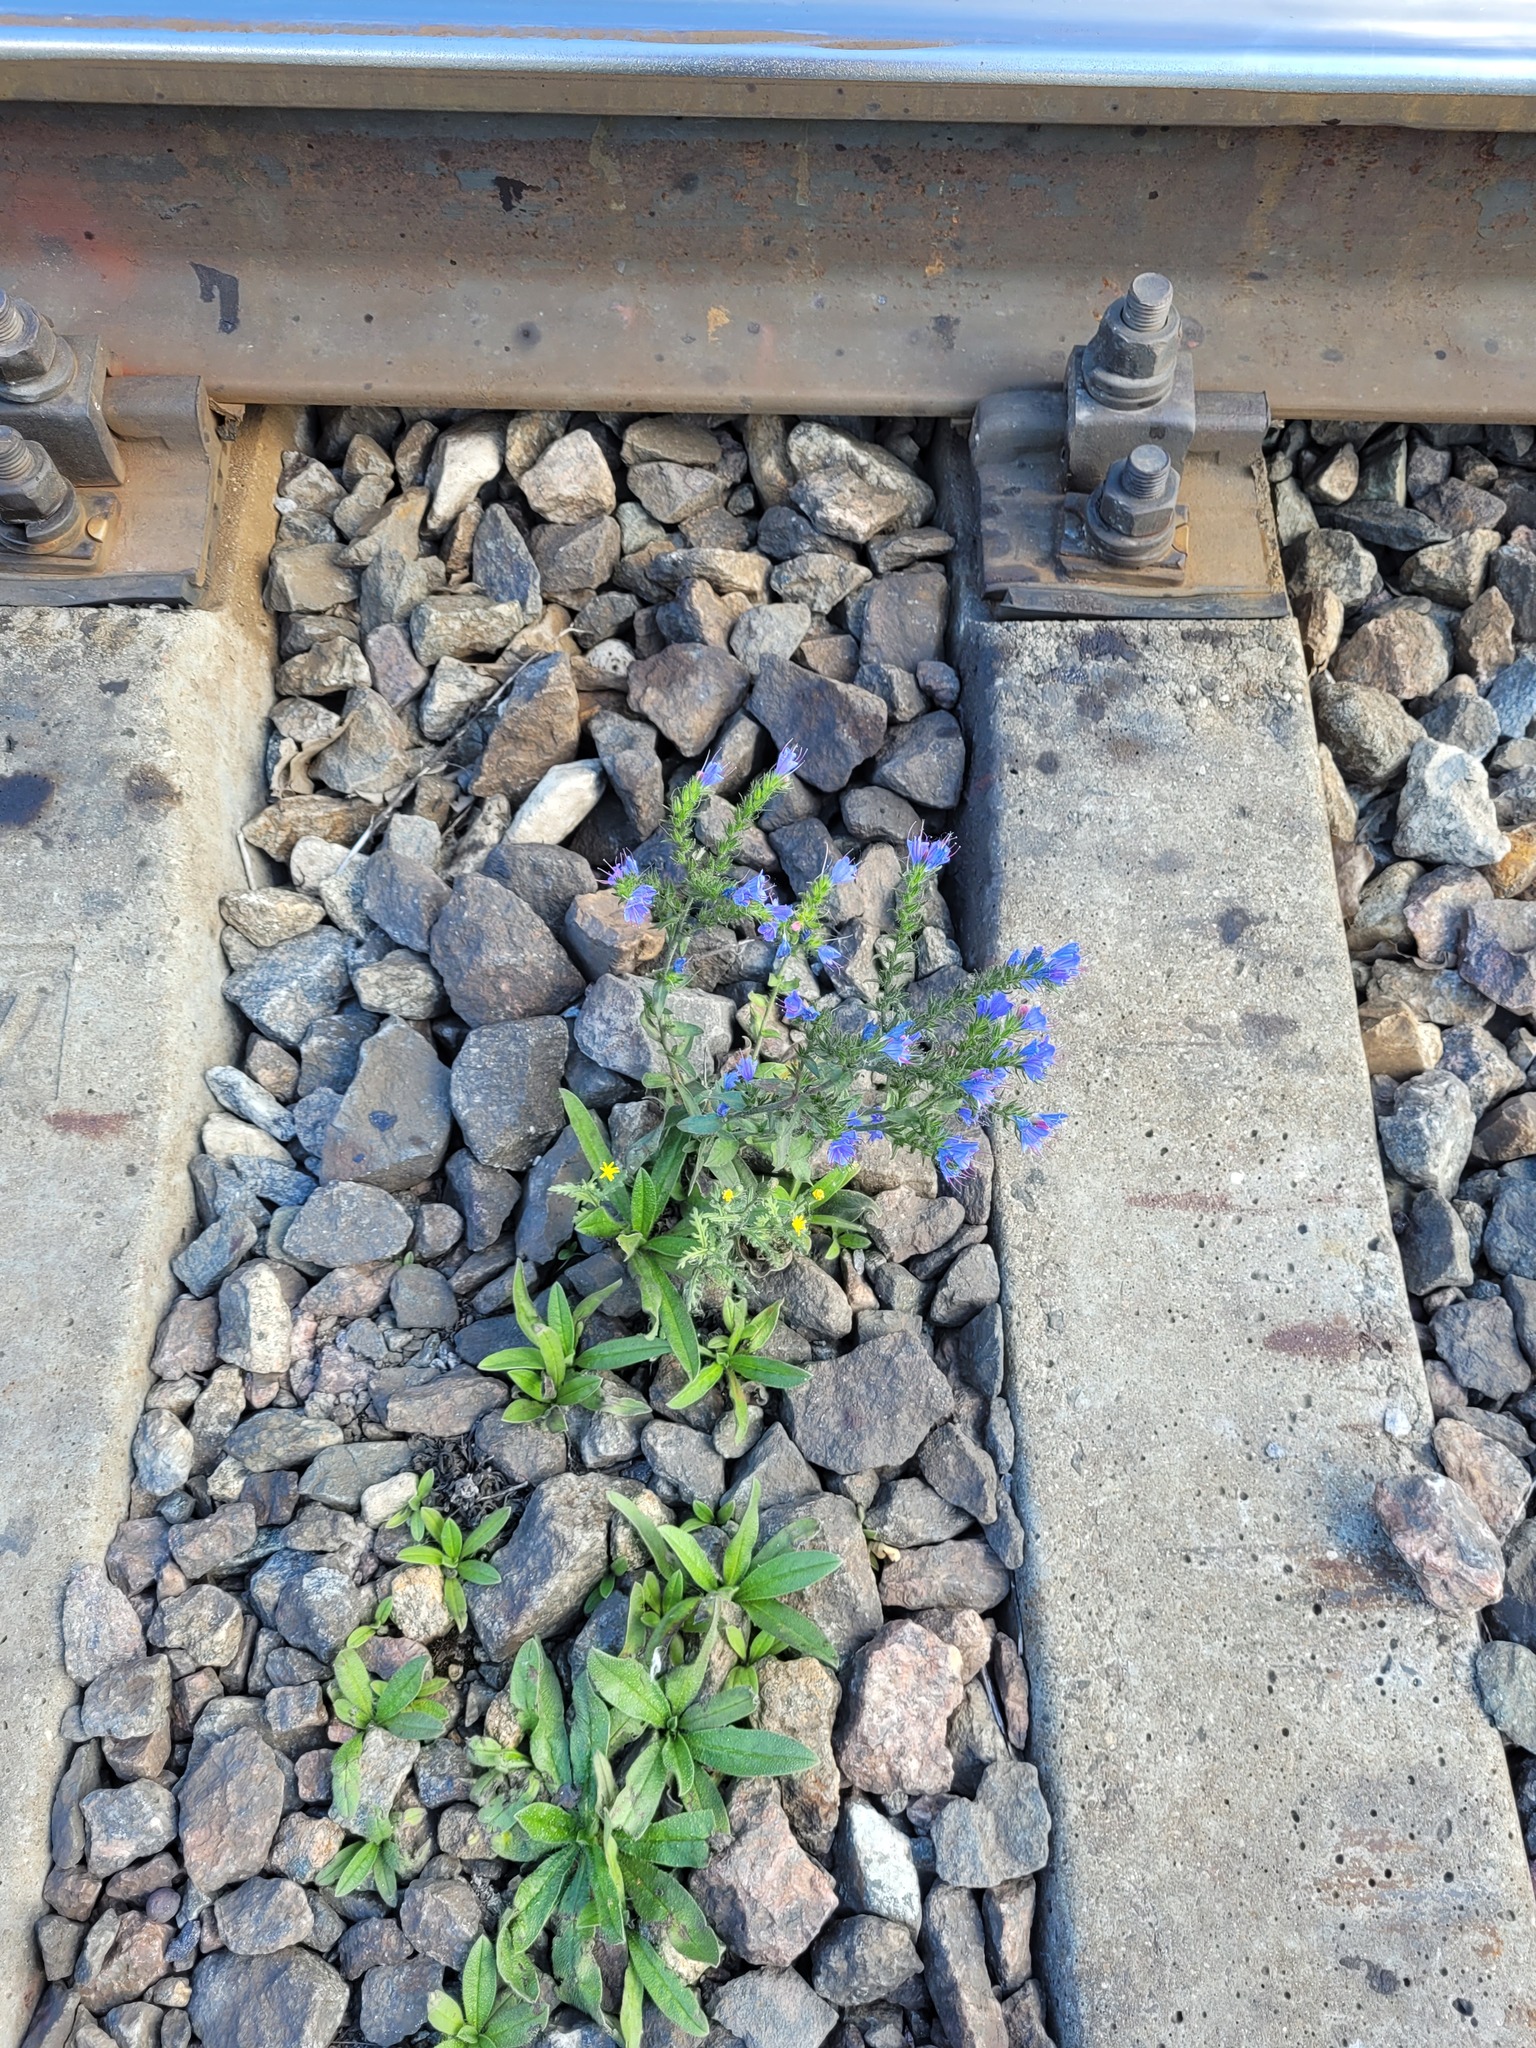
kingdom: Plantae
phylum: Tracheophyta
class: Magnoliopsida
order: Boraginales
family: Boraginaceae
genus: Echium
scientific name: Echium vulgare
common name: Common viper's bugloss
